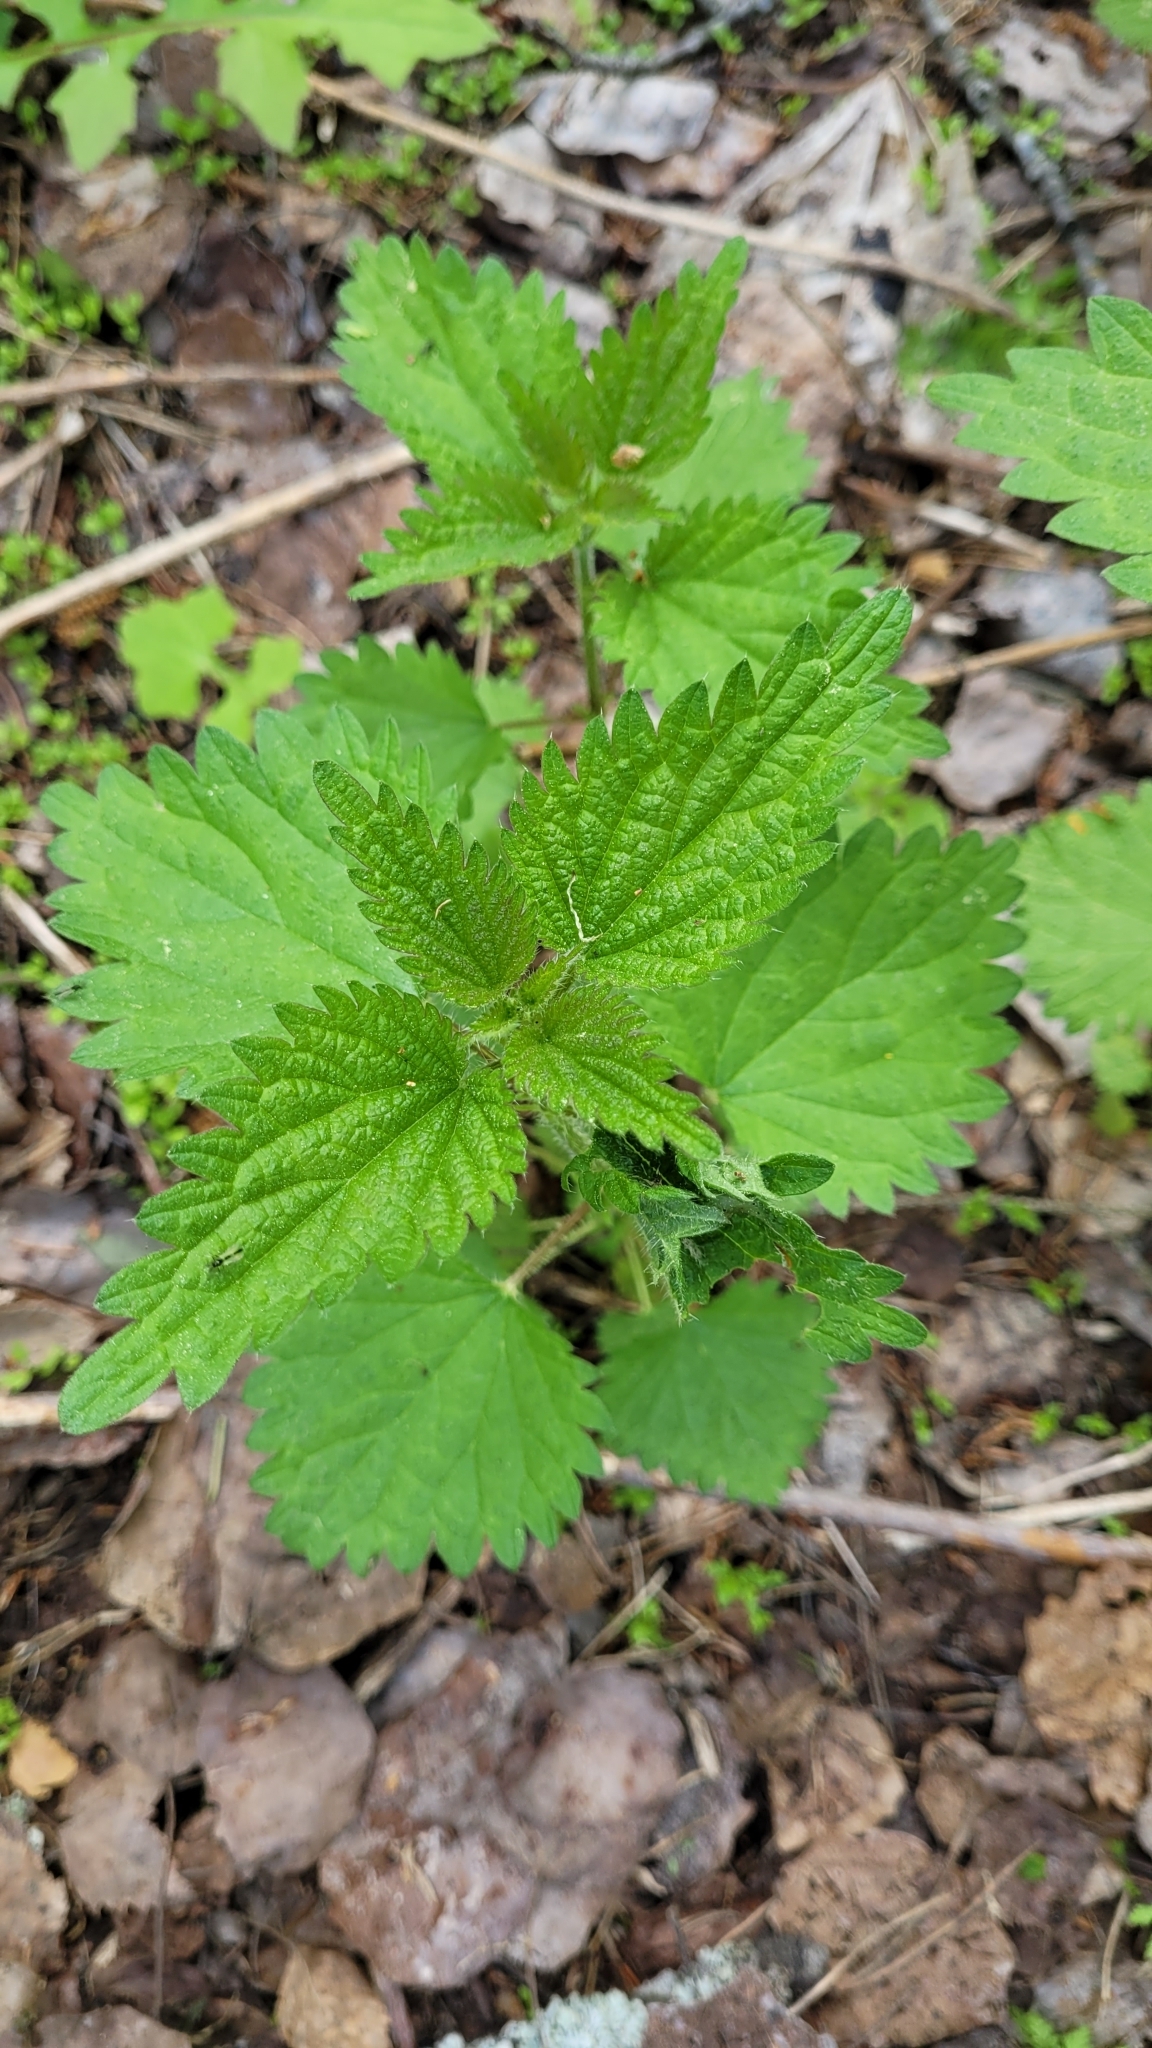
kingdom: Plantae
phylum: Tracheophyta
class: Magnoliopsida
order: Rosales
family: Urticaceae
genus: Urtica
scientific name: Urtica dioica
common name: Common nettle
